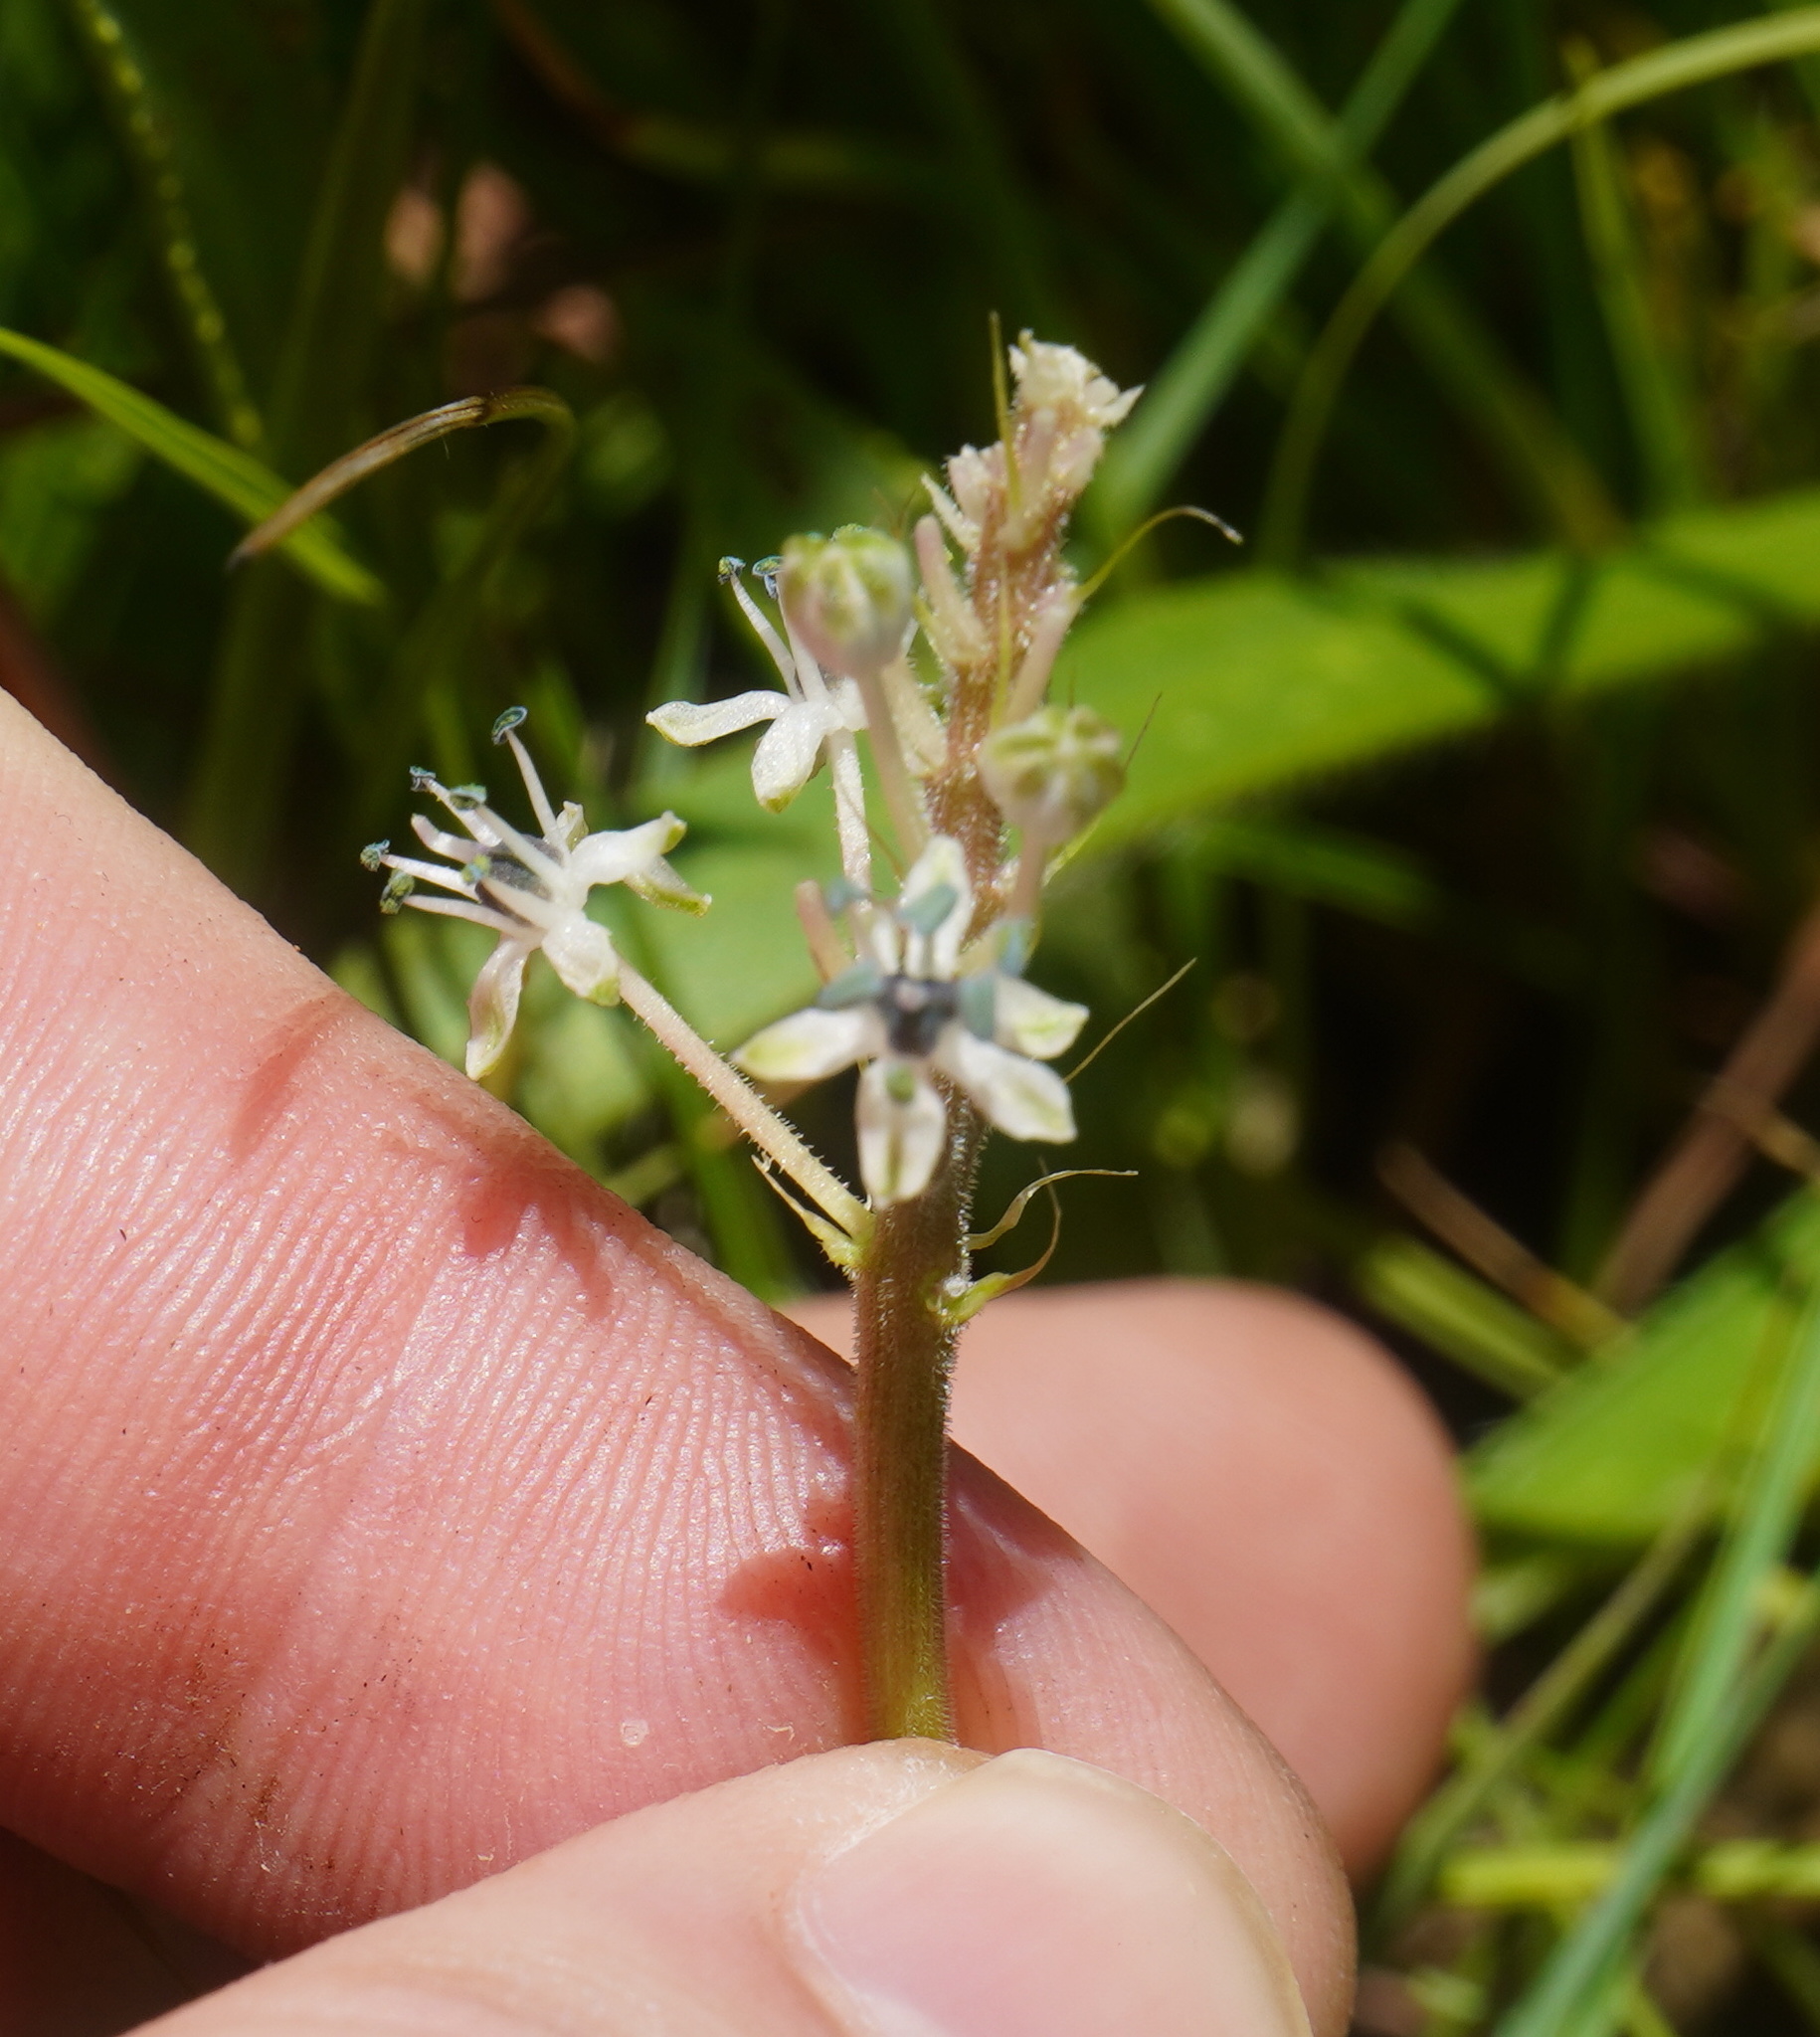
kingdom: Plantae
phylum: Tracheophyta
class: Liliopsida
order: Asparagales
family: Asparagaceae
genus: Schizocarphus
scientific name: Schizocarphus nervosus
